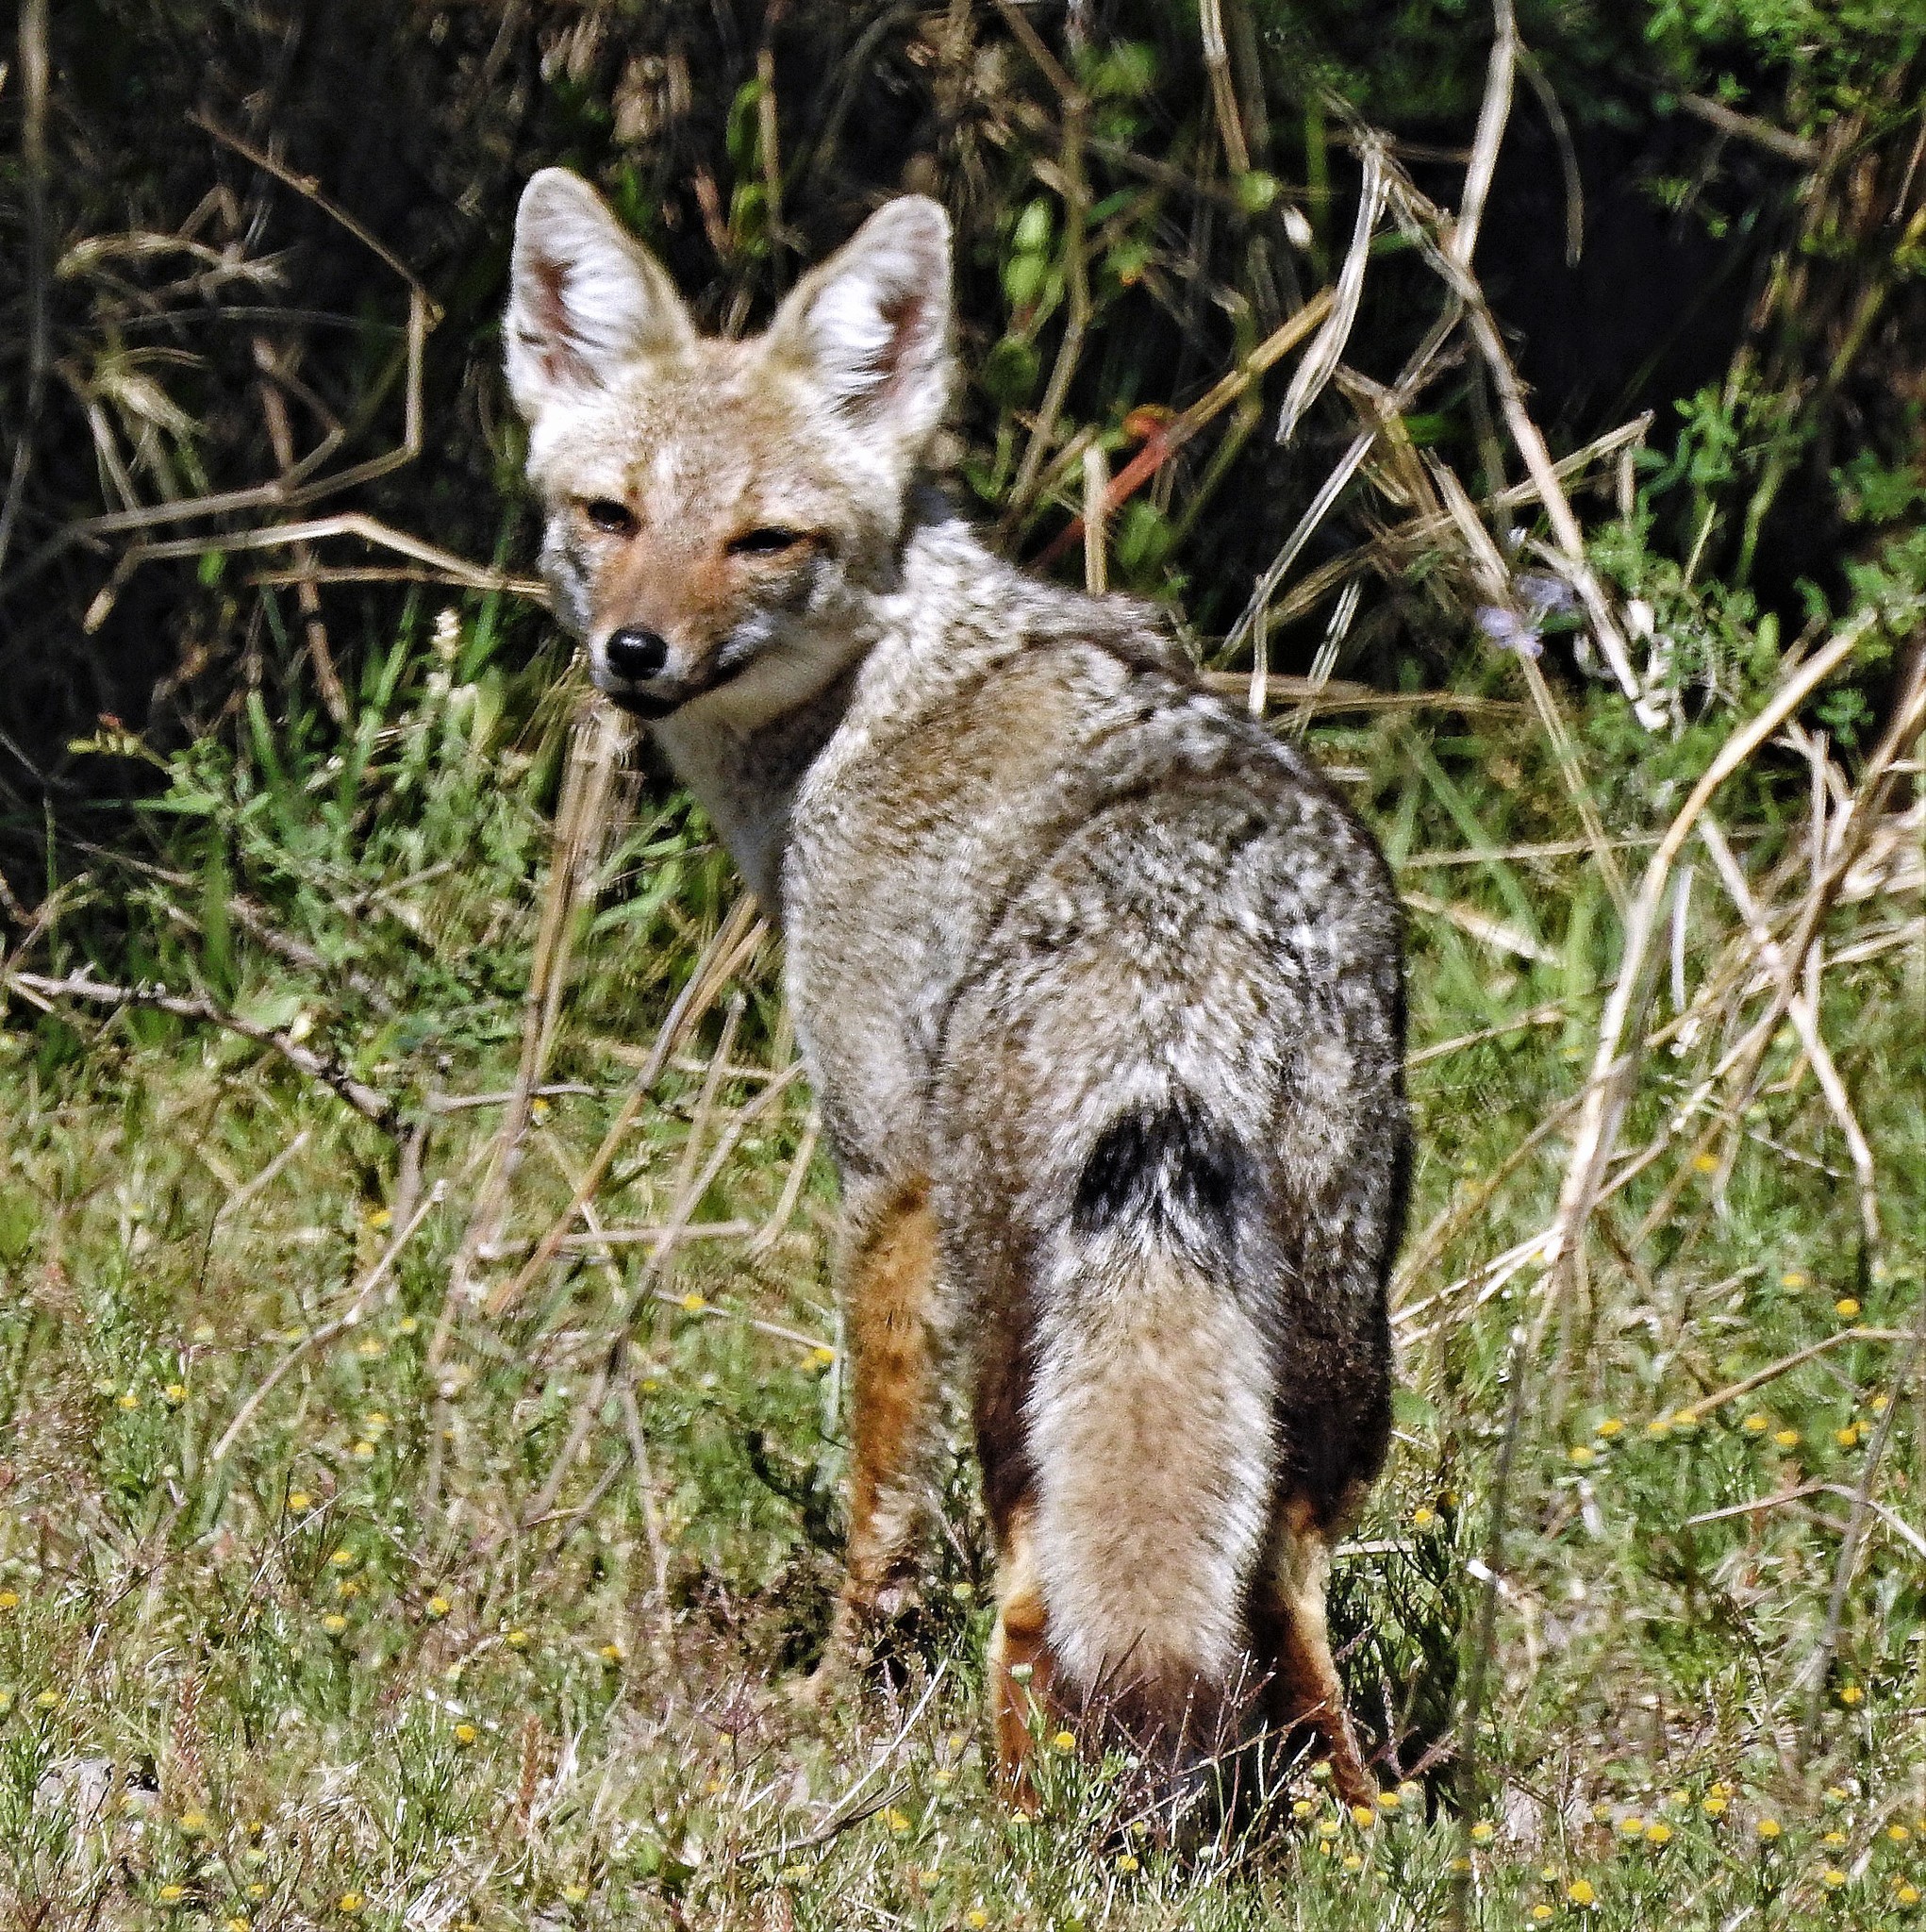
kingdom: Animalia
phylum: Chordata
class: Mammalia
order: Carnivora
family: Canidae
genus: Lycalopex
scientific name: Lycalopex gymnocercus
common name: Pampas fox
